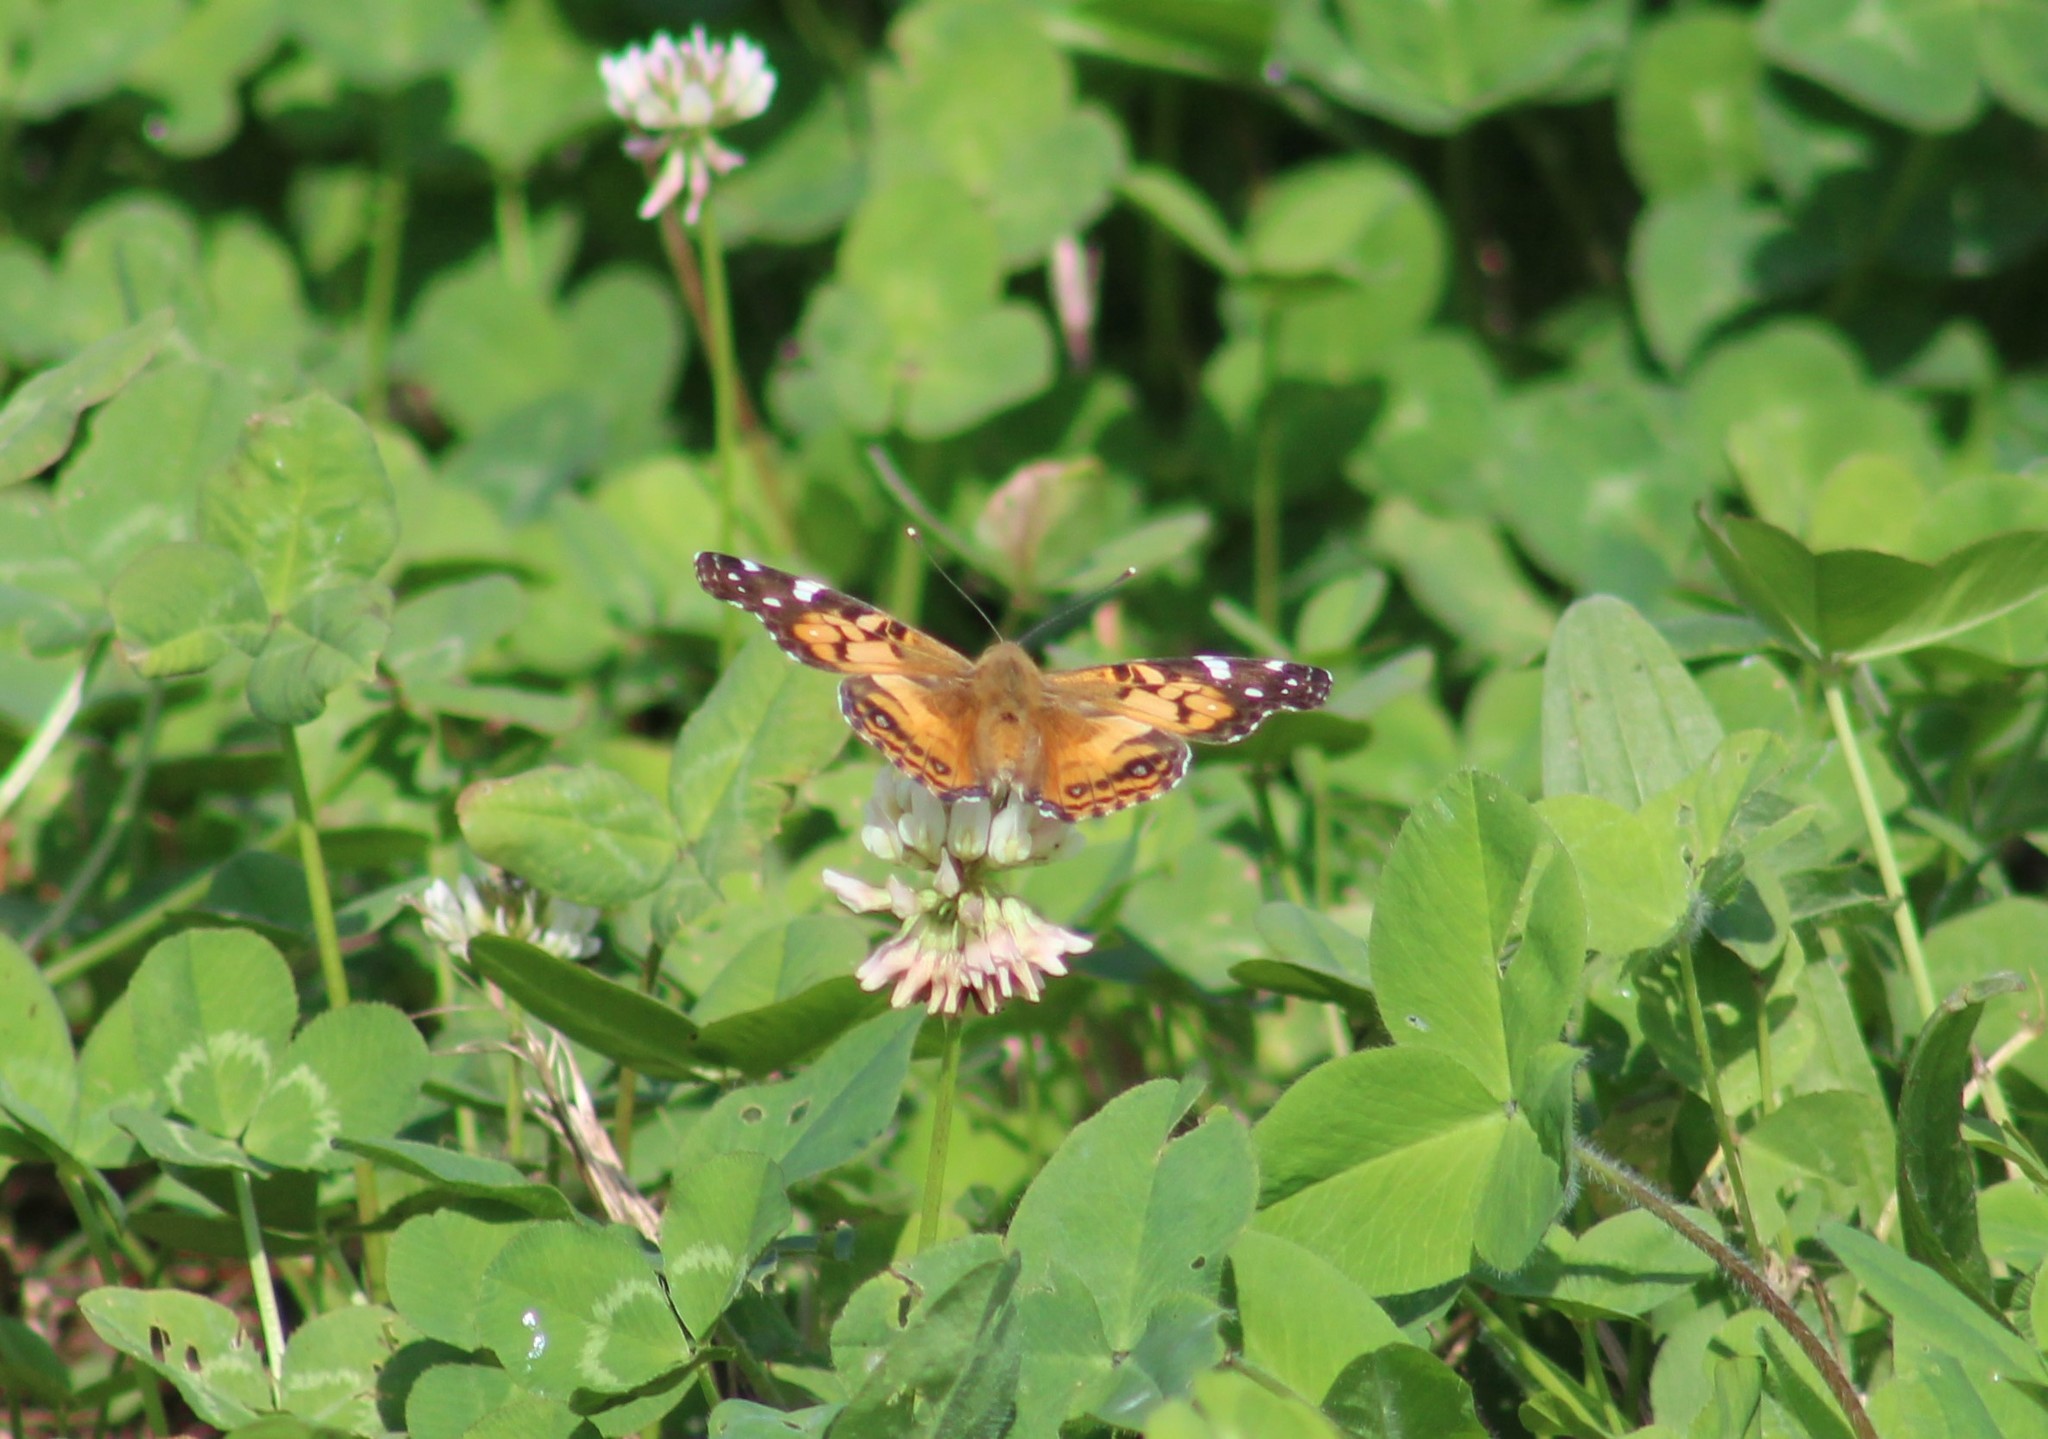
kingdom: Animalia
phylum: Arthropoda
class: Insecta
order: Lepidoptera
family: Nymphalidae
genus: Vanessa
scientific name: Vanessa virginiensis
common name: American lady
